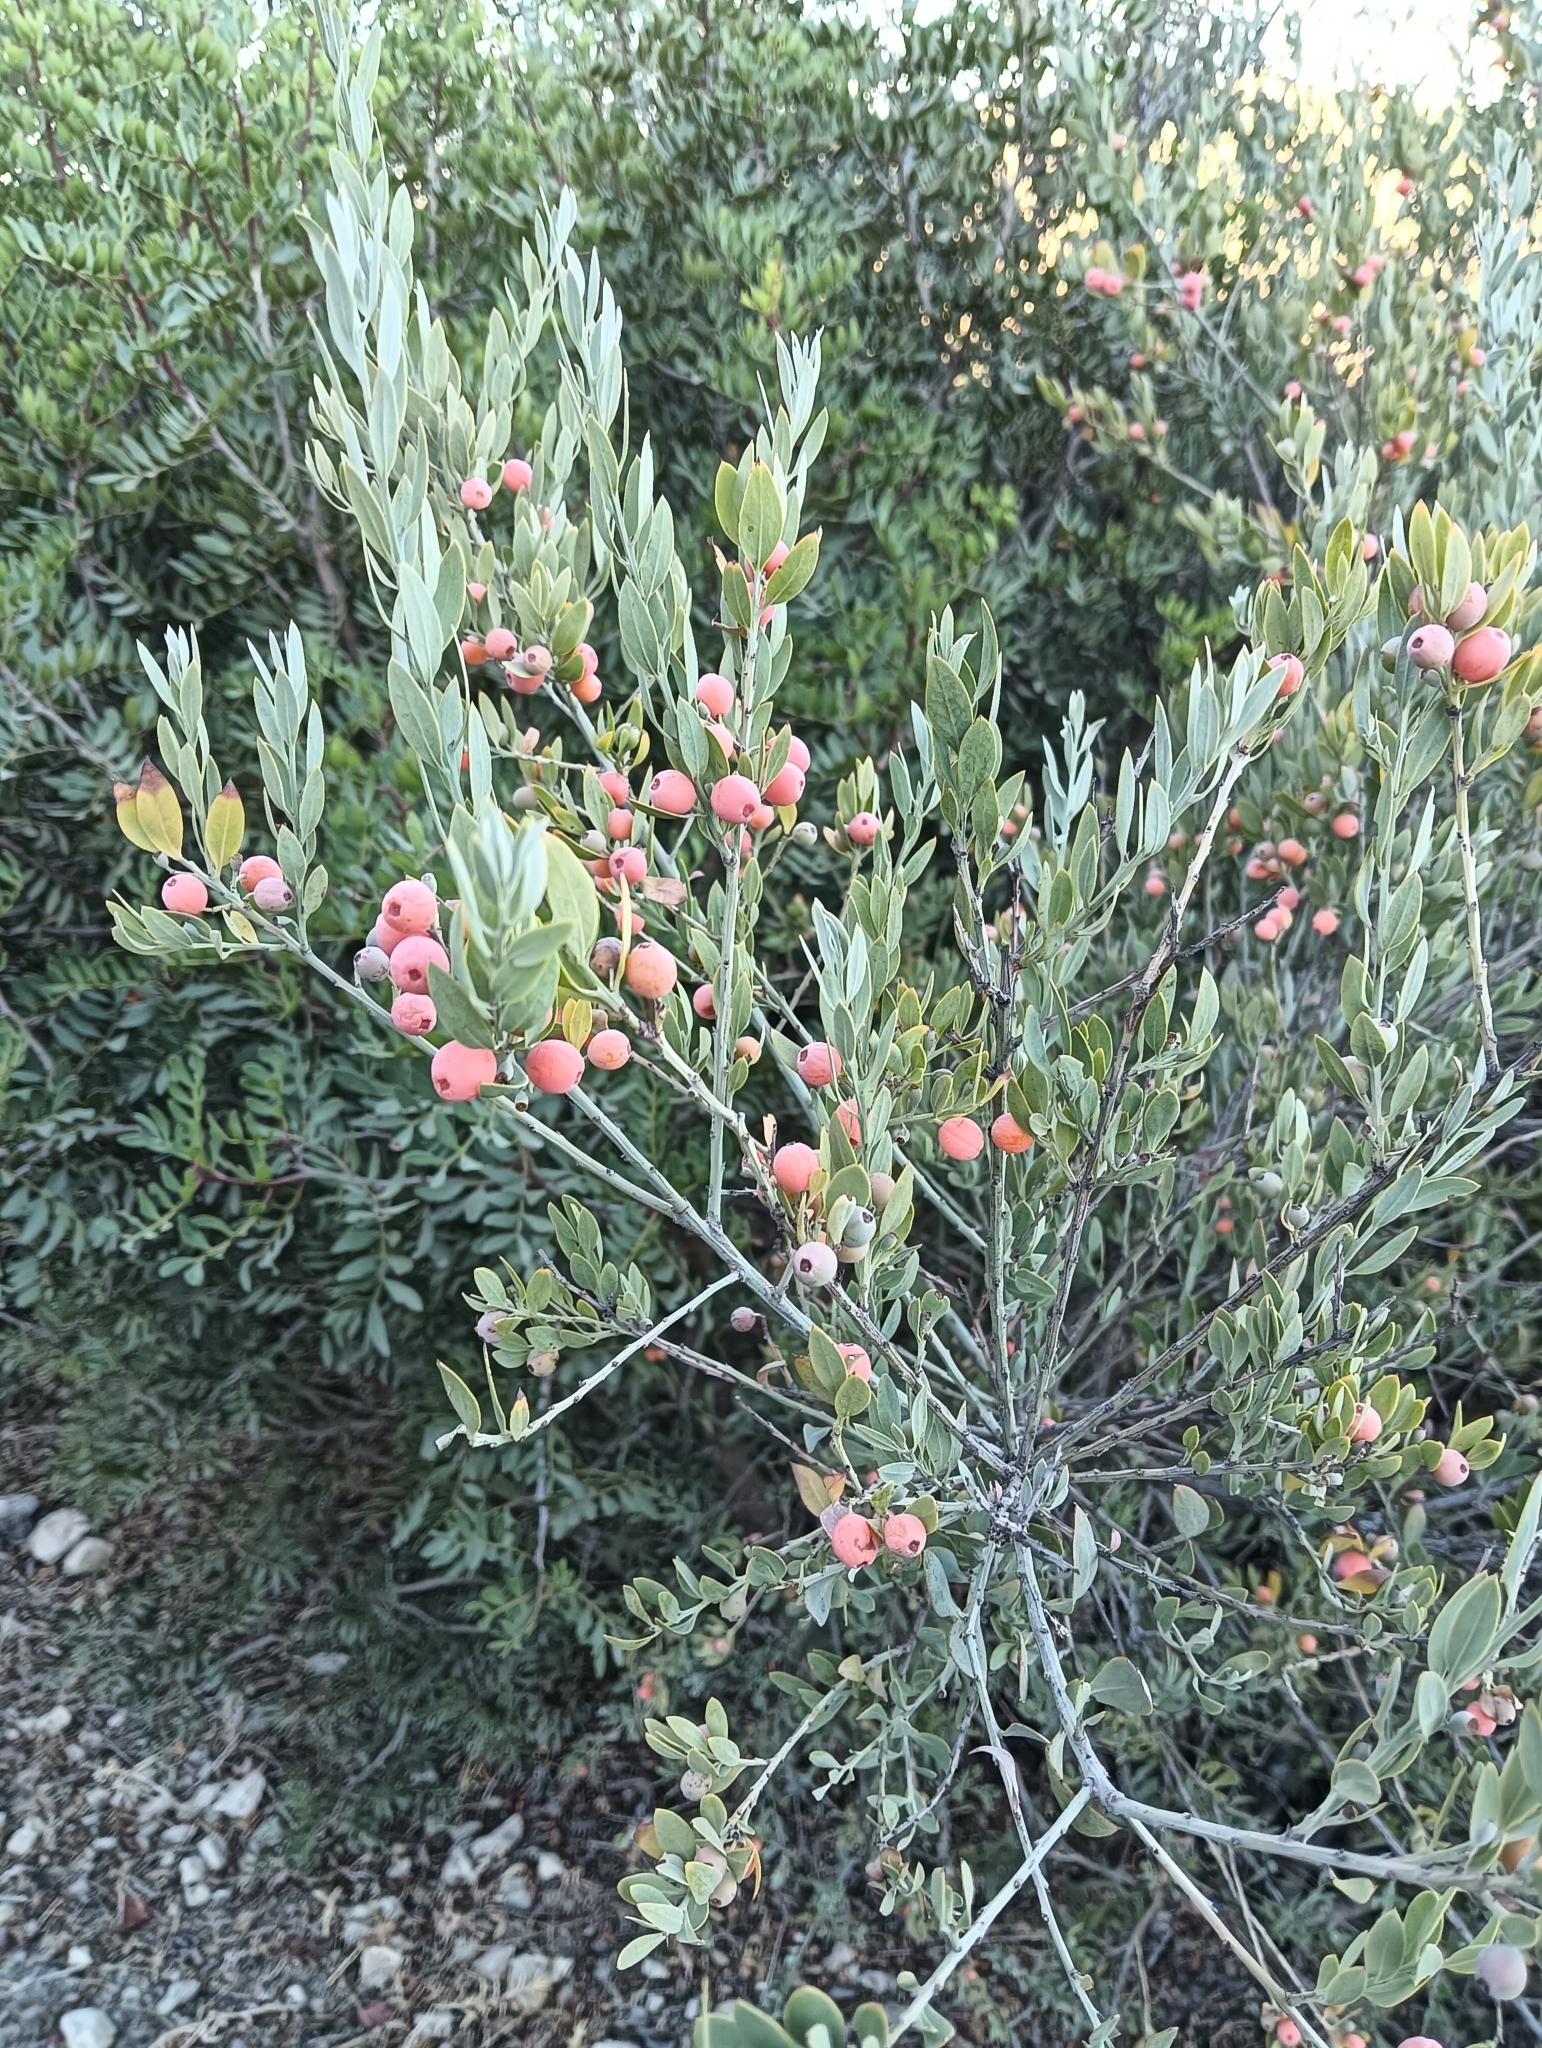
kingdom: Plantae
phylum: Tracheophyta
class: Magnoliopsida
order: Santalales
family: Santalaceae
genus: Osyris
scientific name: Osyris lanceolata
